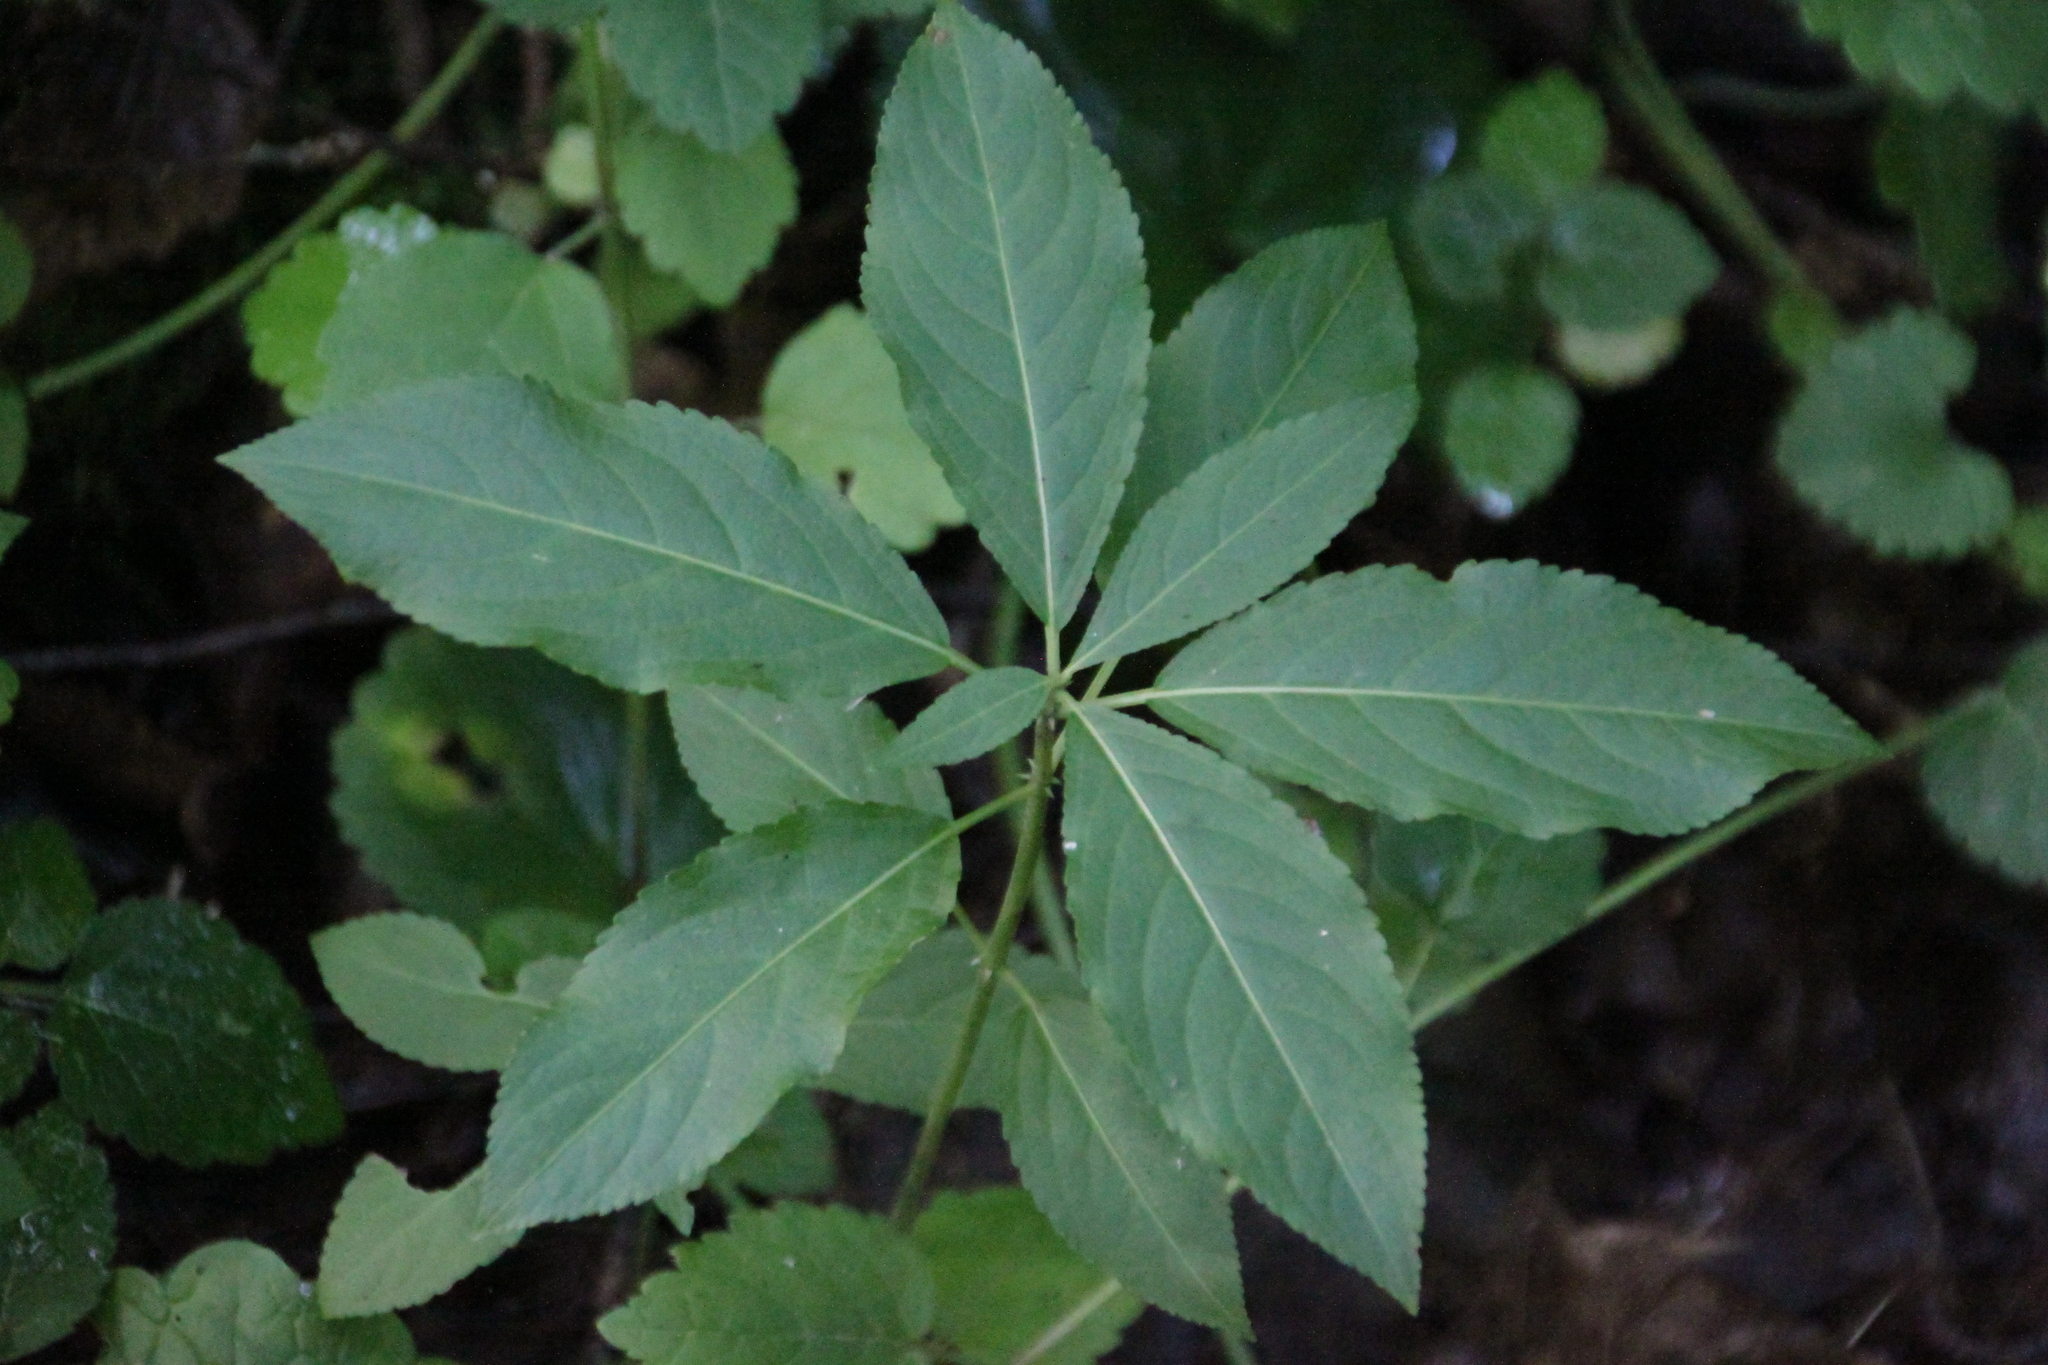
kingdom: Plantae
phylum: Tracheophyta
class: Magnoliopsida
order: Malpighiales
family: Euphorbiaceae
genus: Mercurialis
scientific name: Mercurialis perennis
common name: Dog mercury
